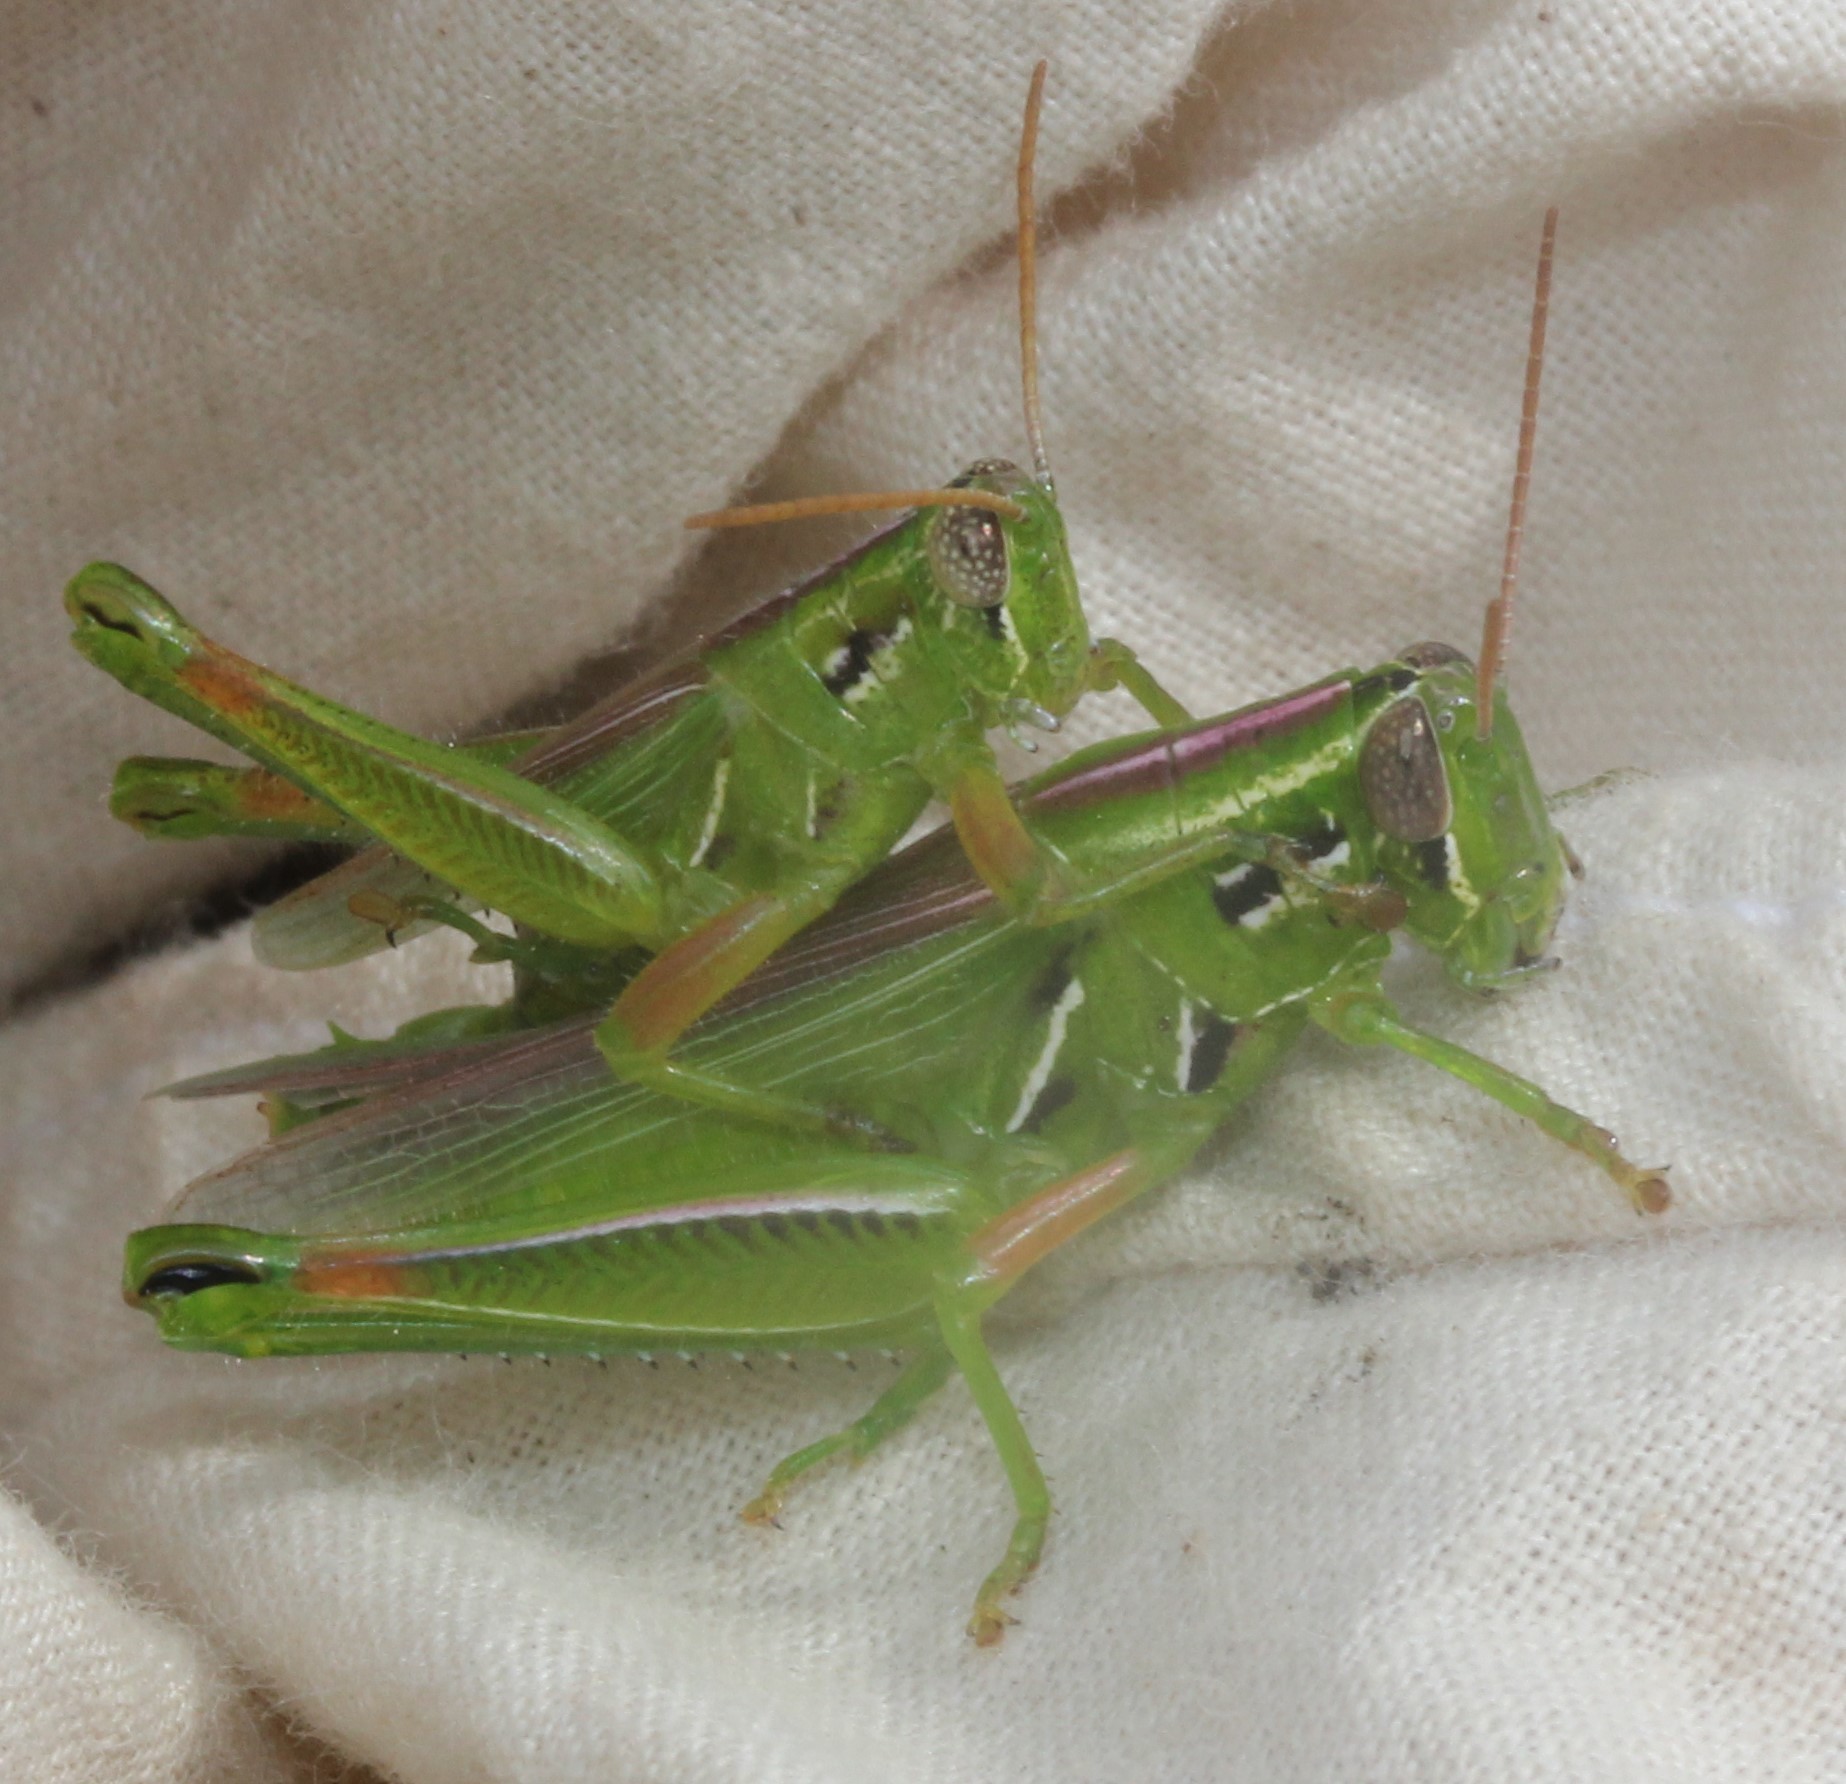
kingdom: Animalia
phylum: Arthropoda
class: Insecta
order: Orthoptera
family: Acrididae
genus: Hesperotettix
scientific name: Hesperotettix viridis
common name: Meadow purple-striped grasshopper
